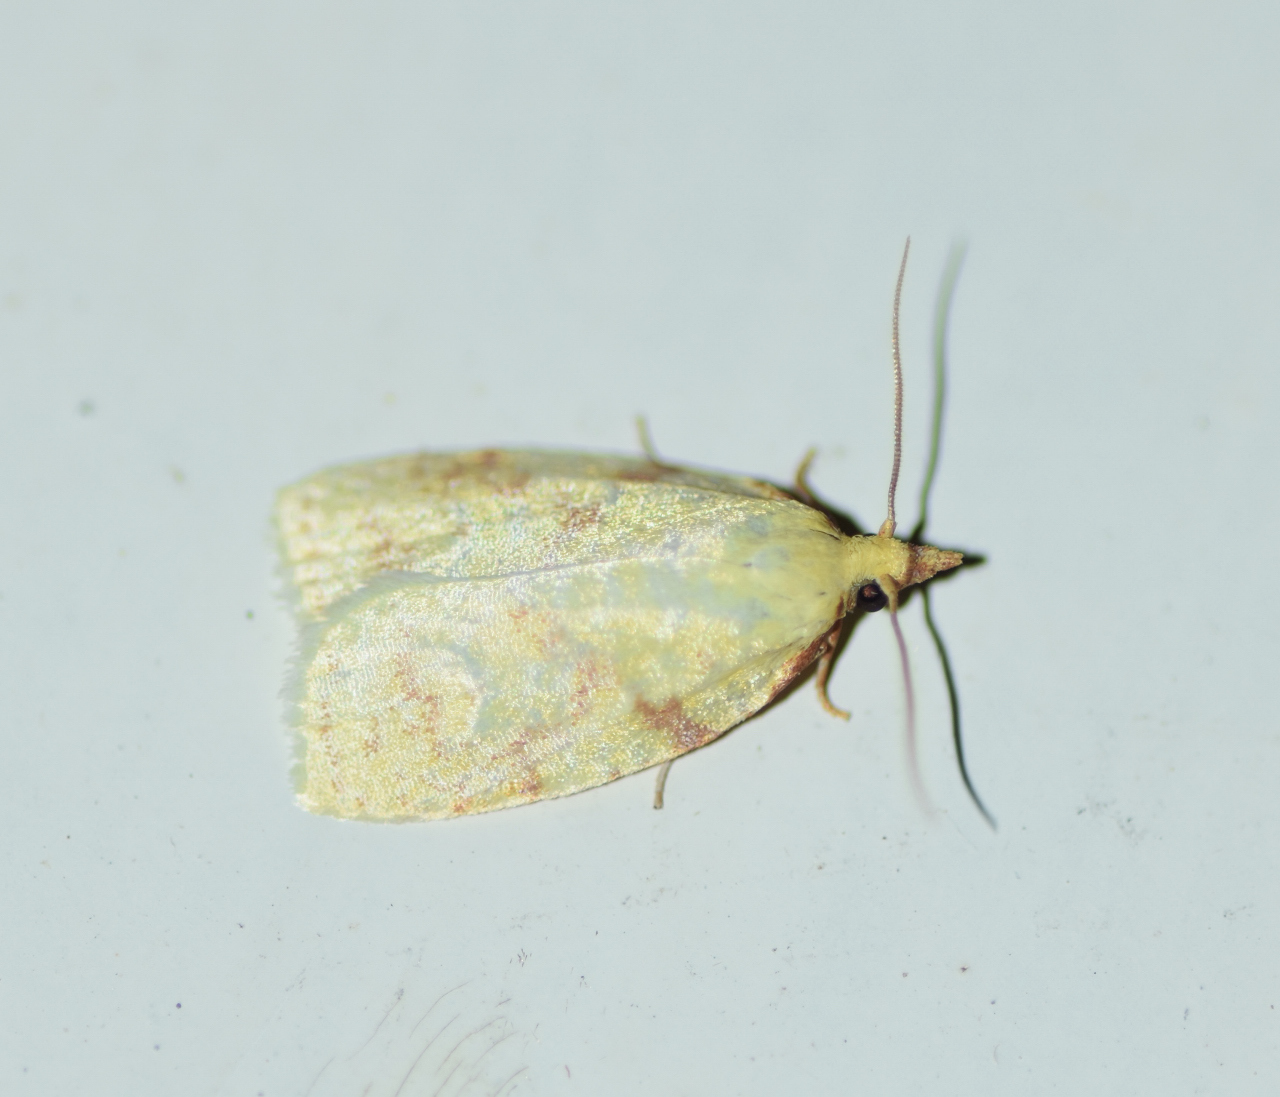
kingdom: Animalia
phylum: Arthropoda
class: Insecta
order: Lepidoptera
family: Tortricidae
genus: Cenopis
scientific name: Cenopis pettitana
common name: Maple-basswood leafroller moth
